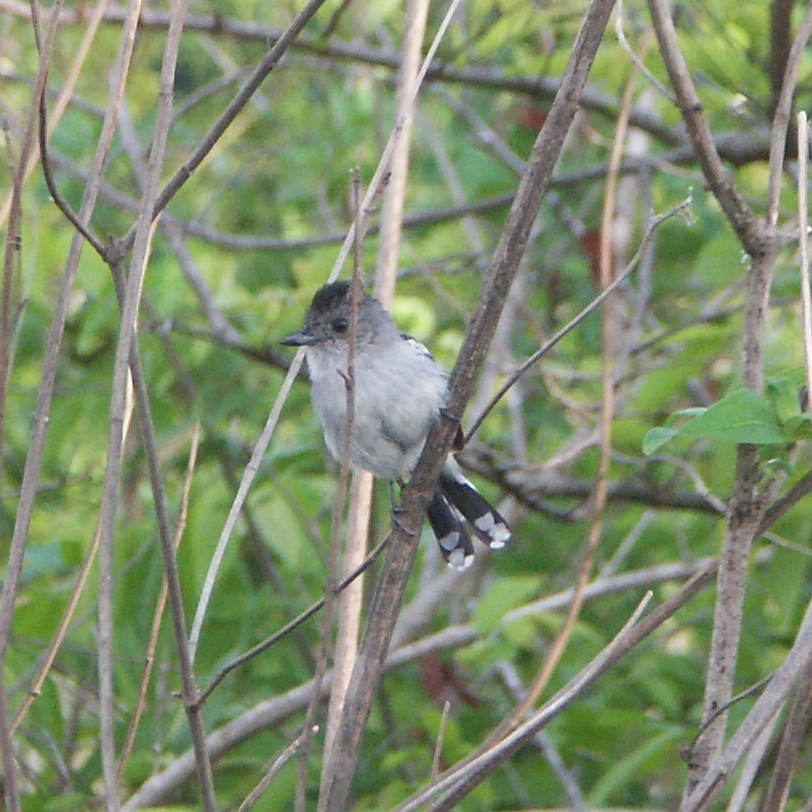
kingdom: Animalia
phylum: Chordata
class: Aves
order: Passeriformes
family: Thamnophilidae
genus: Thamnophilus
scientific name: Thamnophilus pelzelni
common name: Planalto slaty-antshrike
